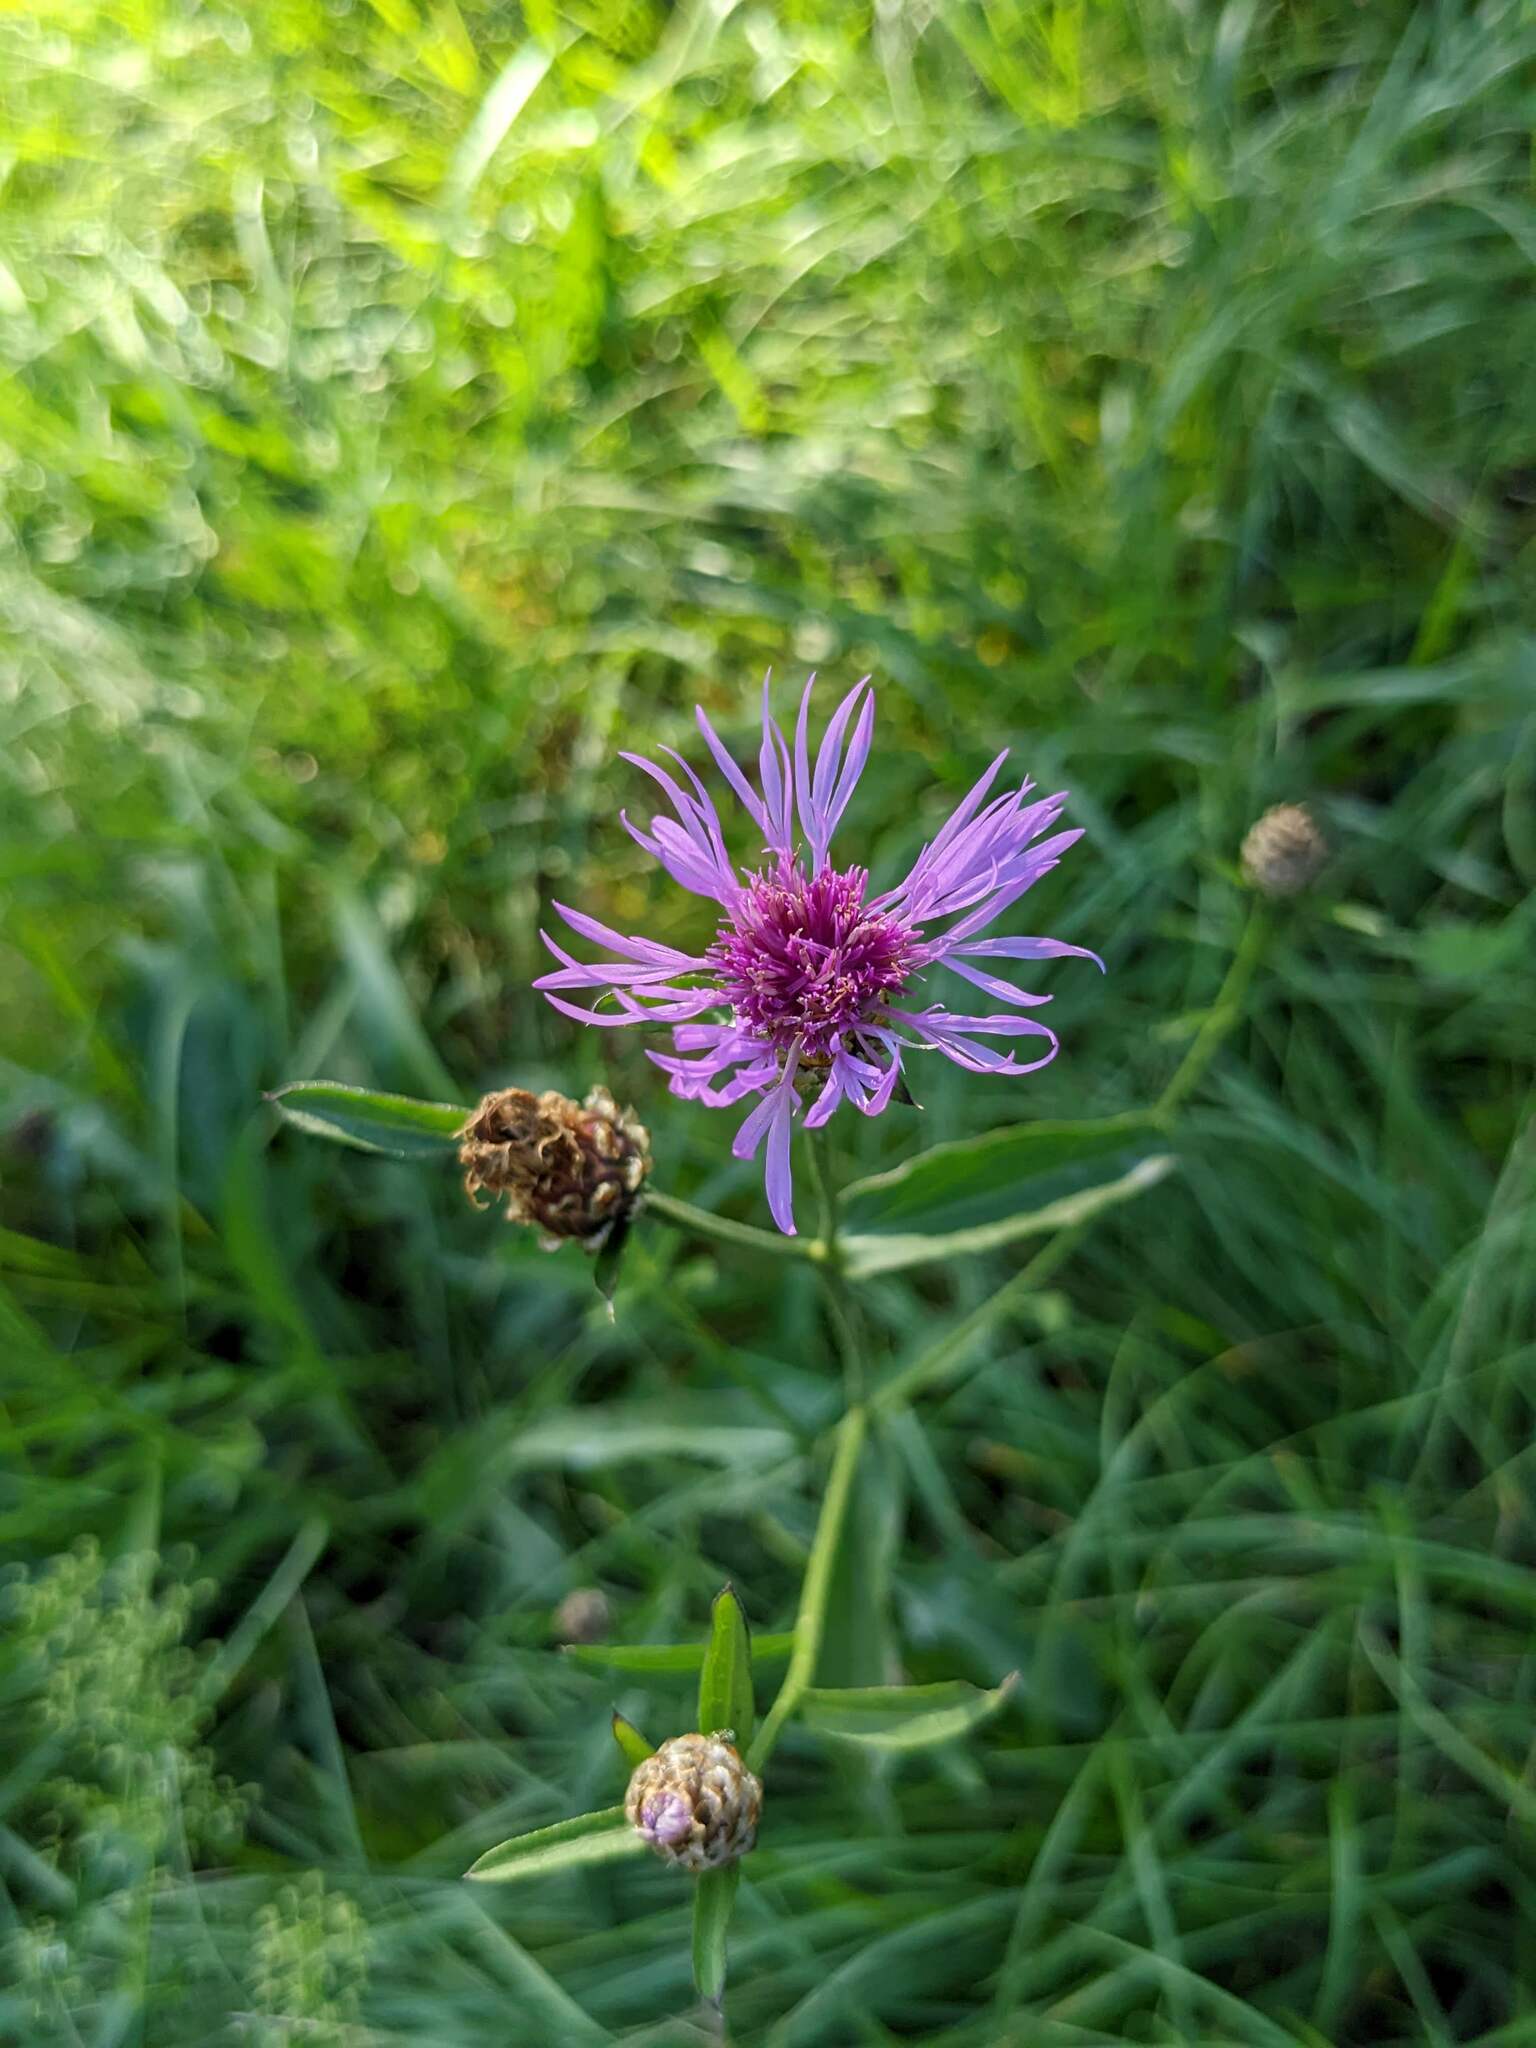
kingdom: Plantae
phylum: Tracheophyta
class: Magnoliopsida
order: Asterales
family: Asteraceae
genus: Centaurea
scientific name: Centaurea jacea
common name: Brown knapweed
